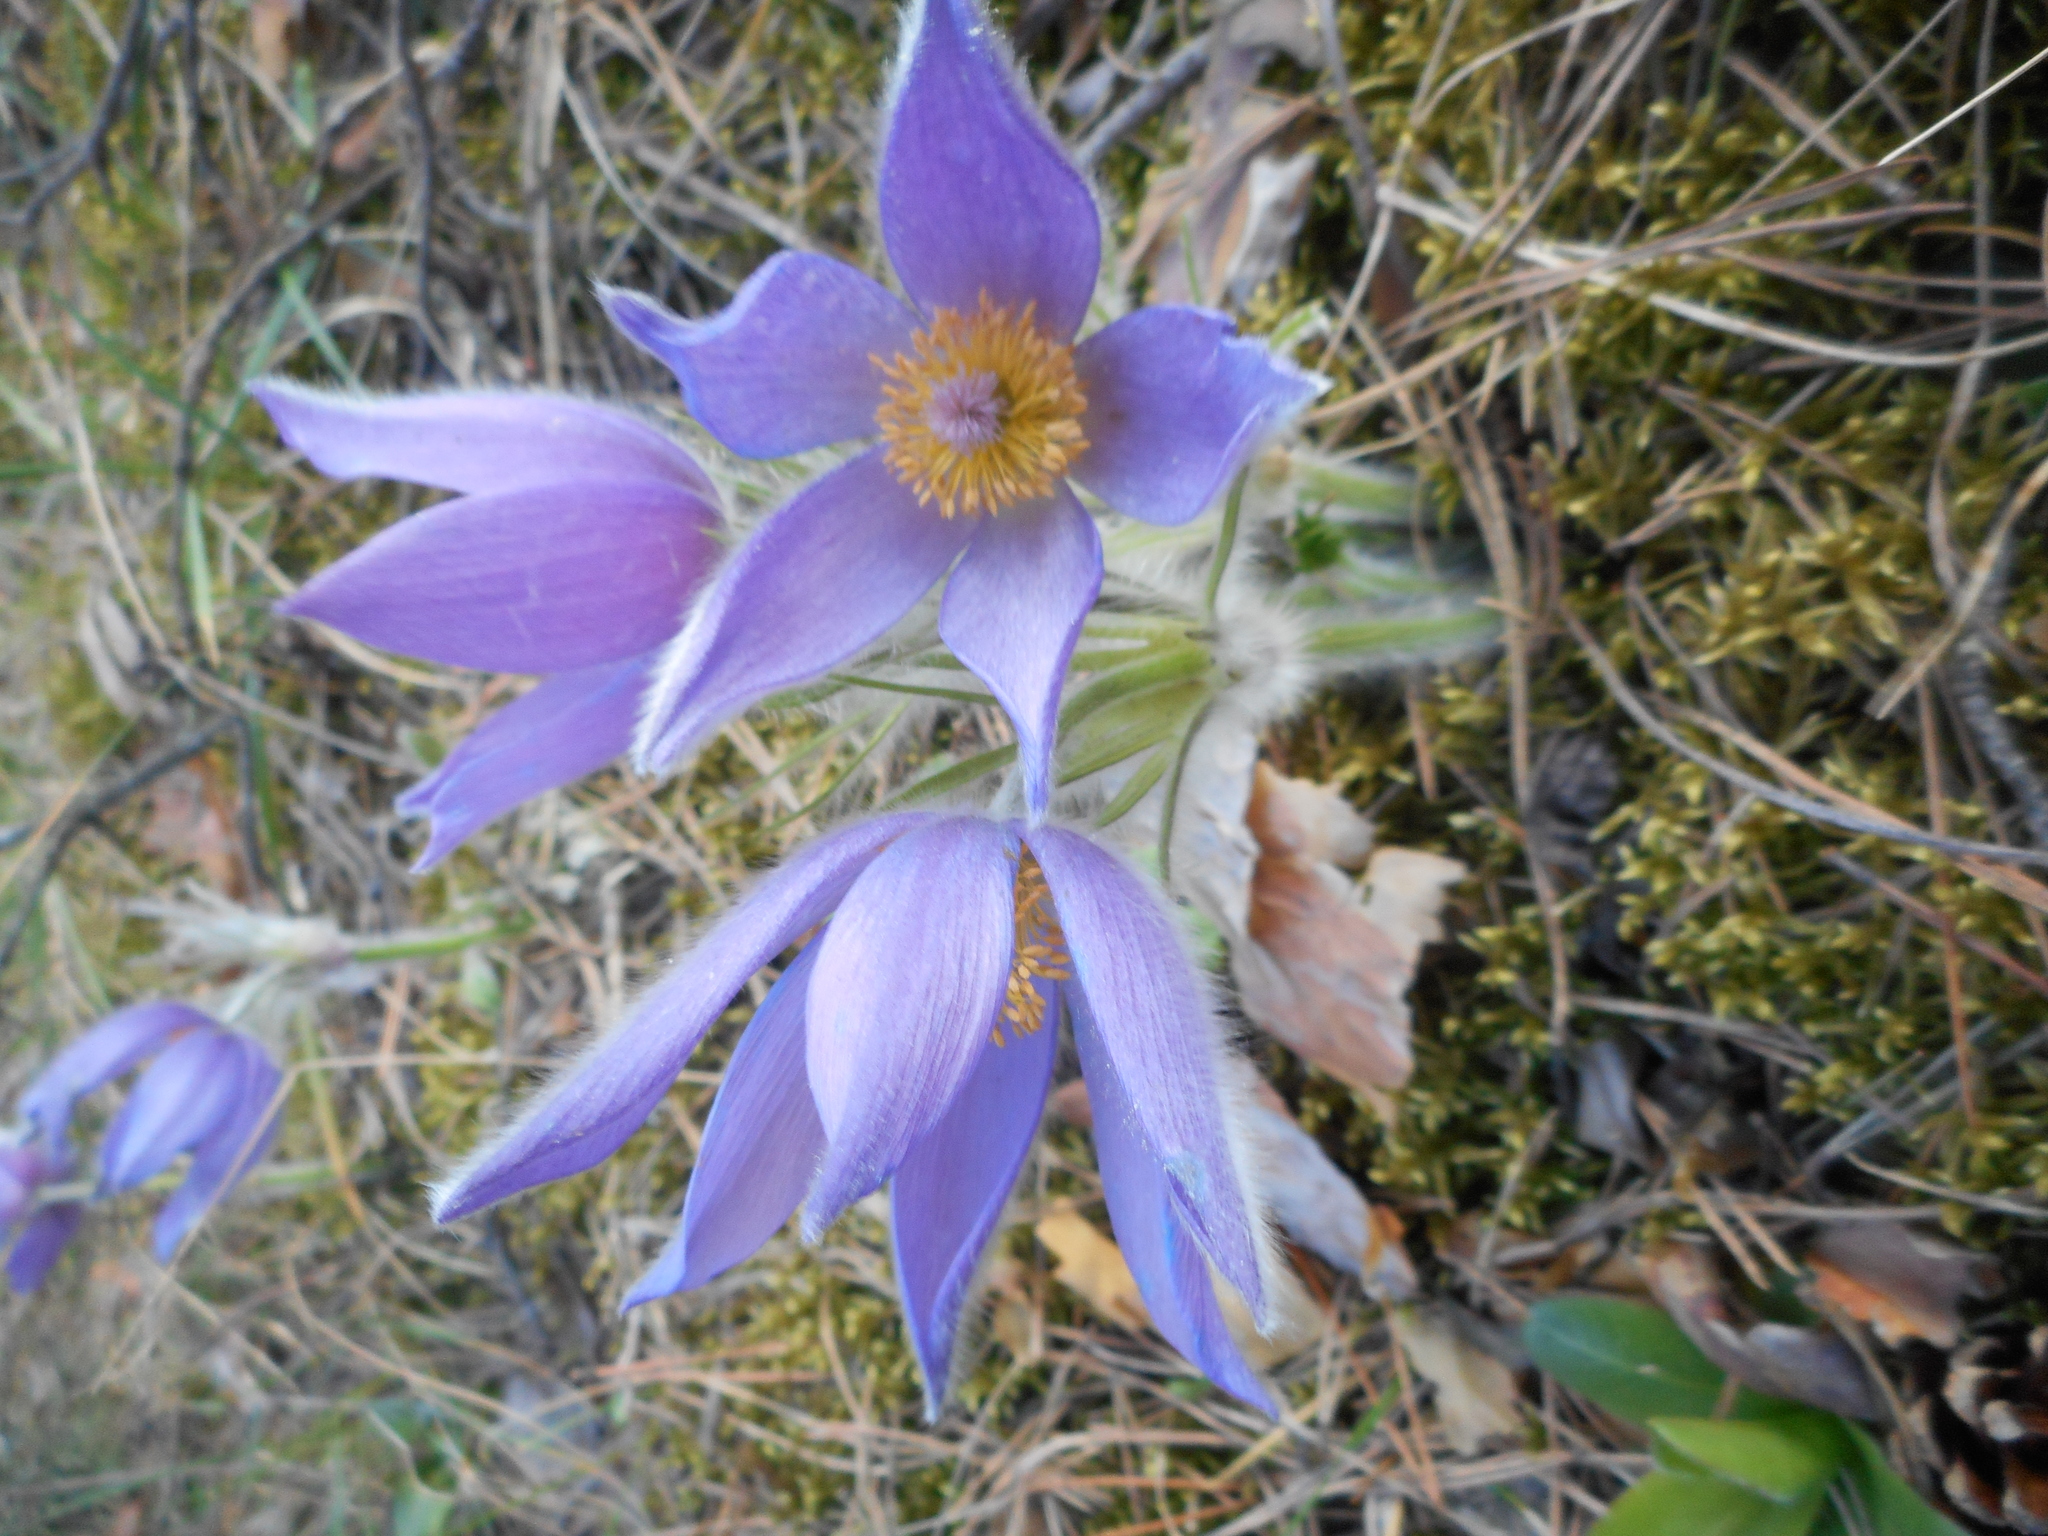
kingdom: Plantae
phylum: Tracheophyta
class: Magnoliopsida
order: Ranunculales
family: Ranunculaceae
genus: Pulsatilla
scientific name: Pulsatilla patens
